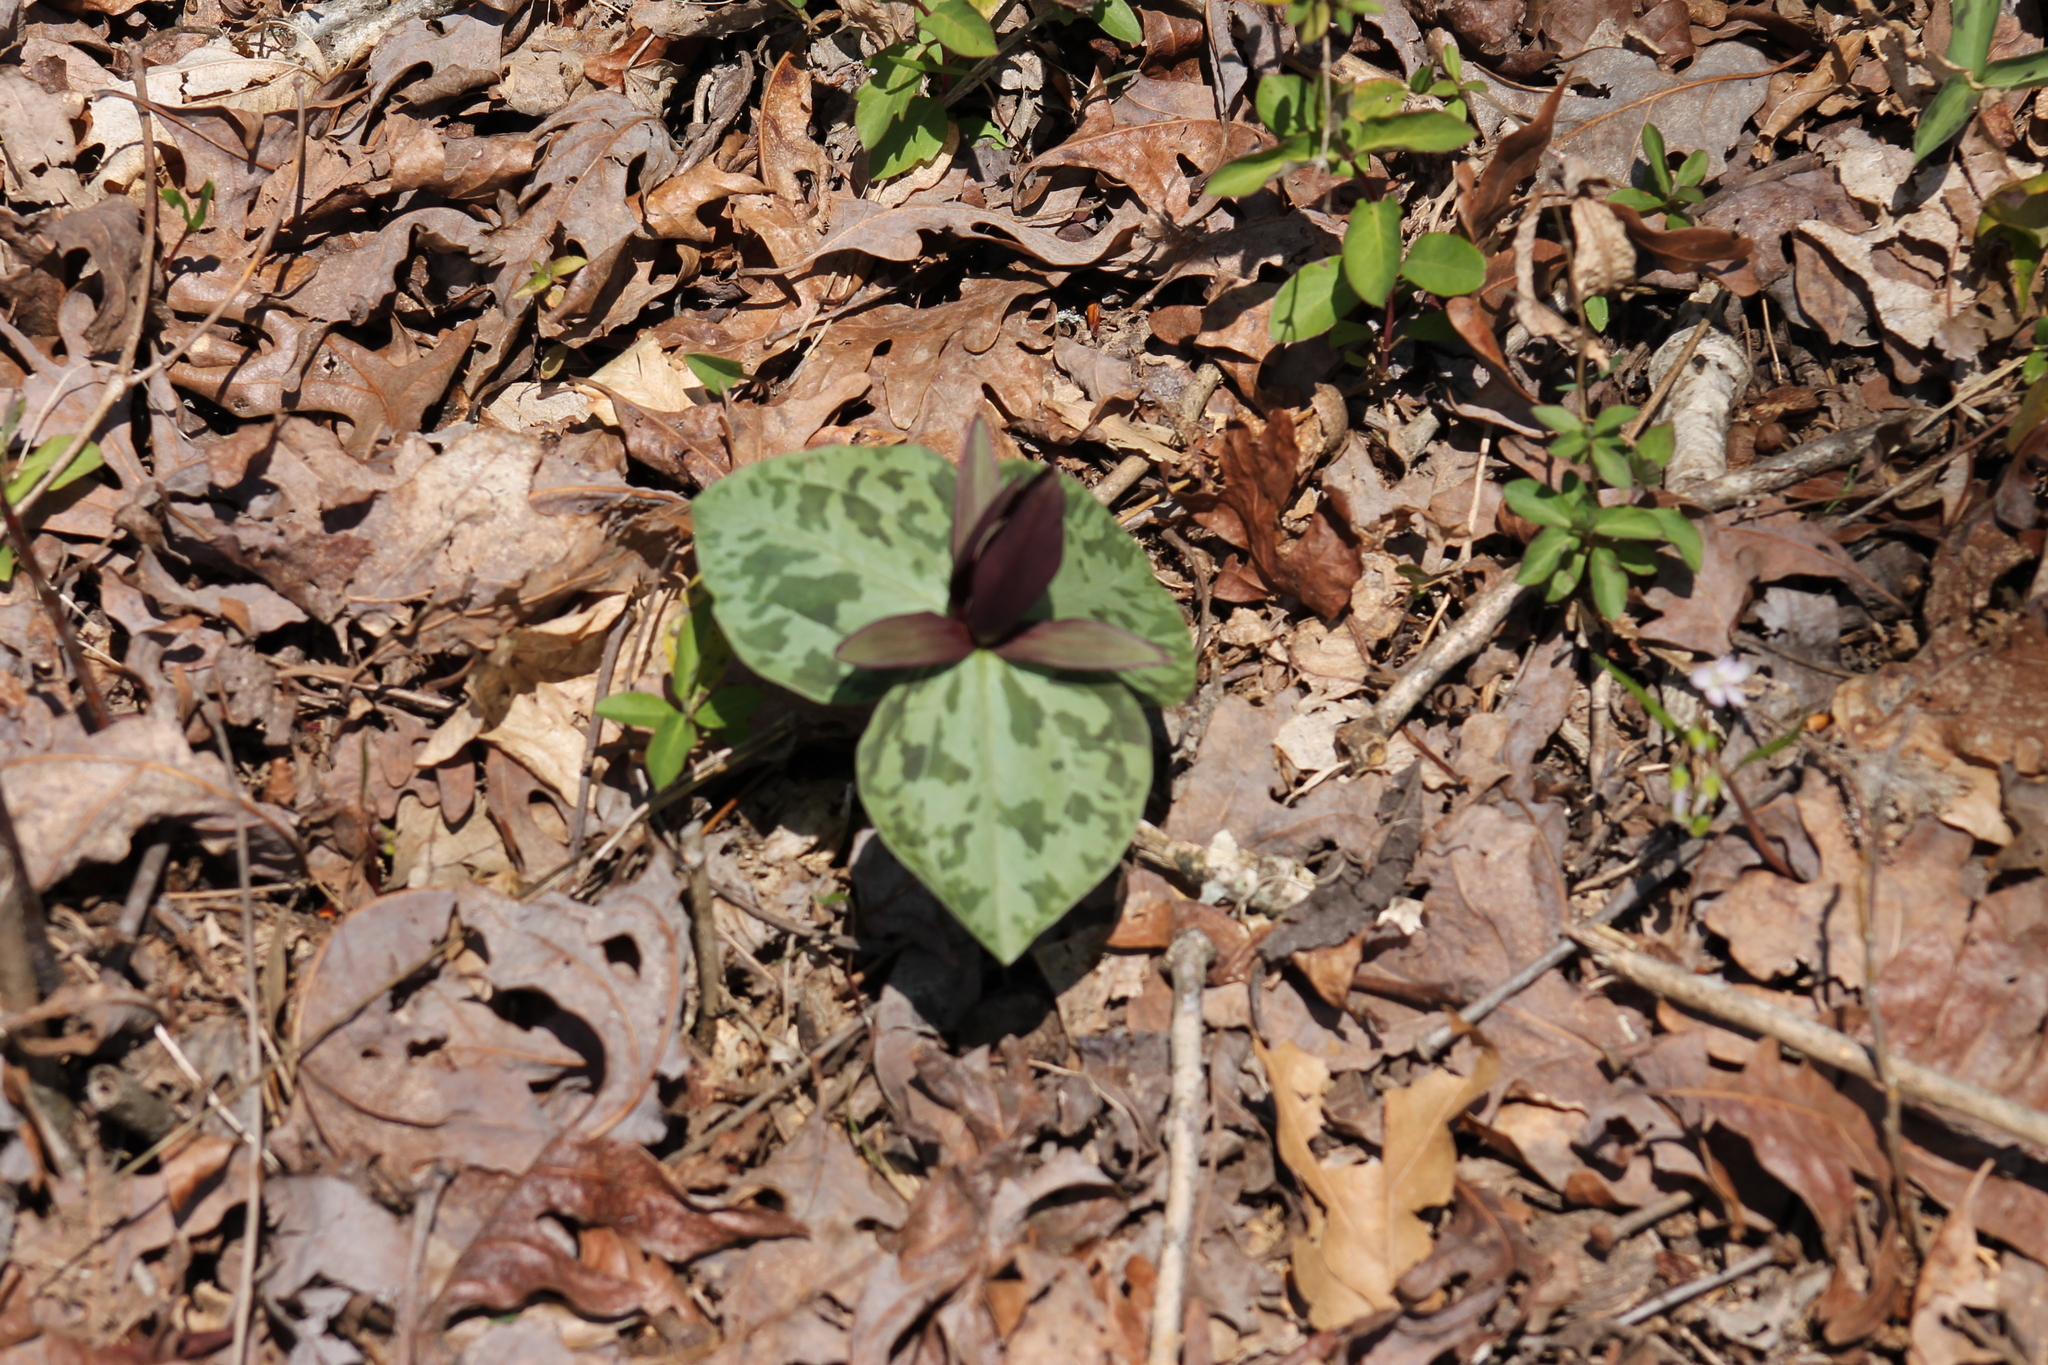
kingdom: Plantae
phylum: Tracheophyta
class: Liliopsida
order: Liliales
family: Melanthiaceae
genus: Trillium
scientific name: Trillium cuneatum
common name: Cuneate trillium
